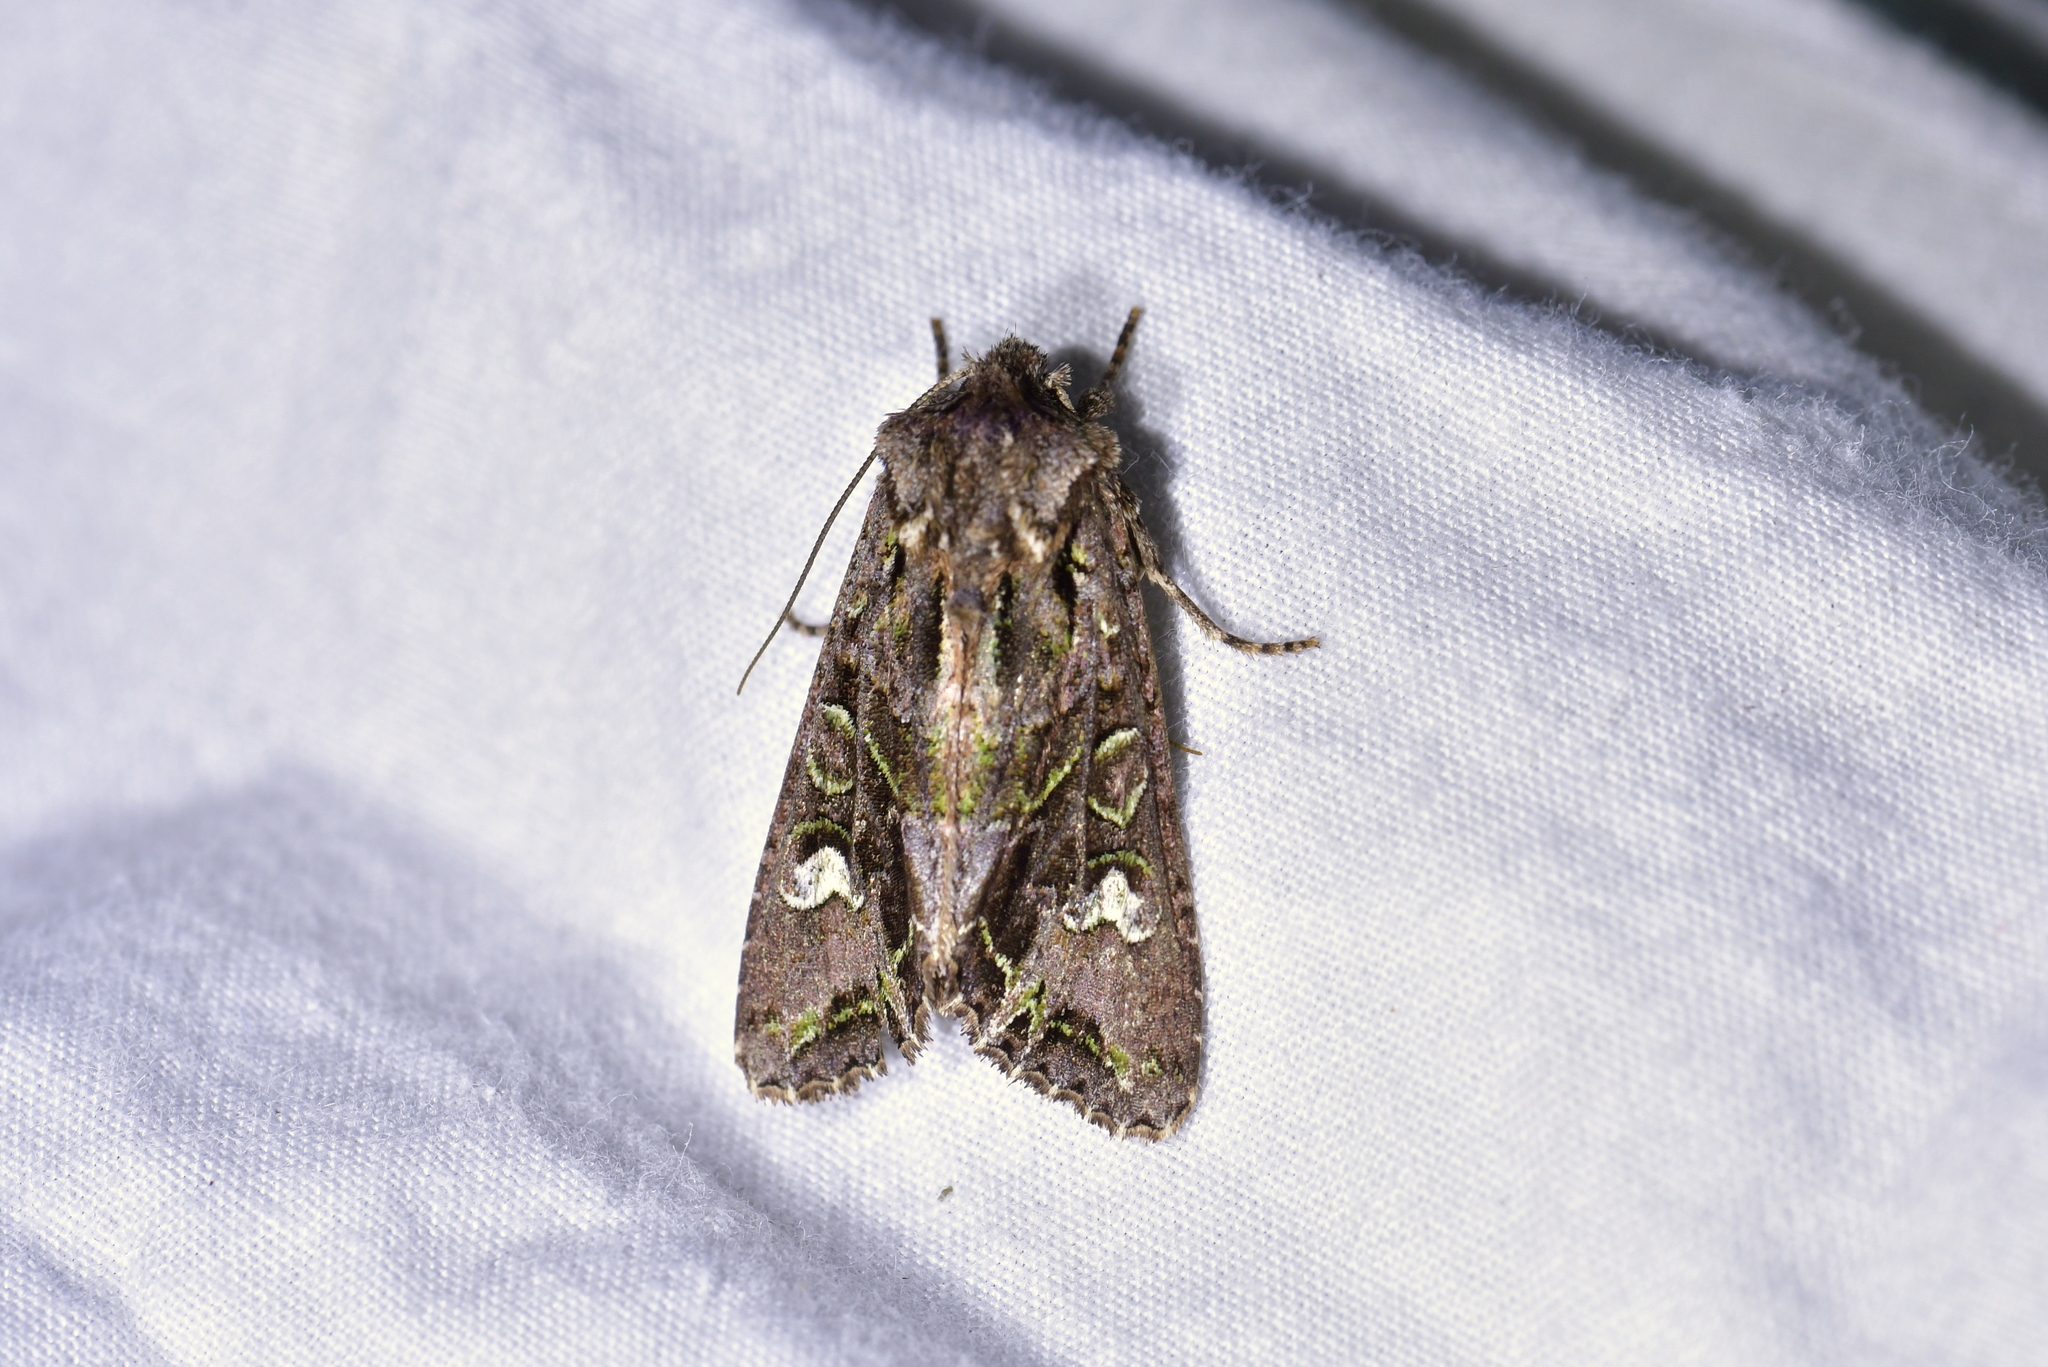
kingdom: Animalia
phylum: Arthropoda
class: Insecta
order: Lepidoptera
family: Noctuidae
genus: Ichneutica
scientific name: Ichneutica insignis
